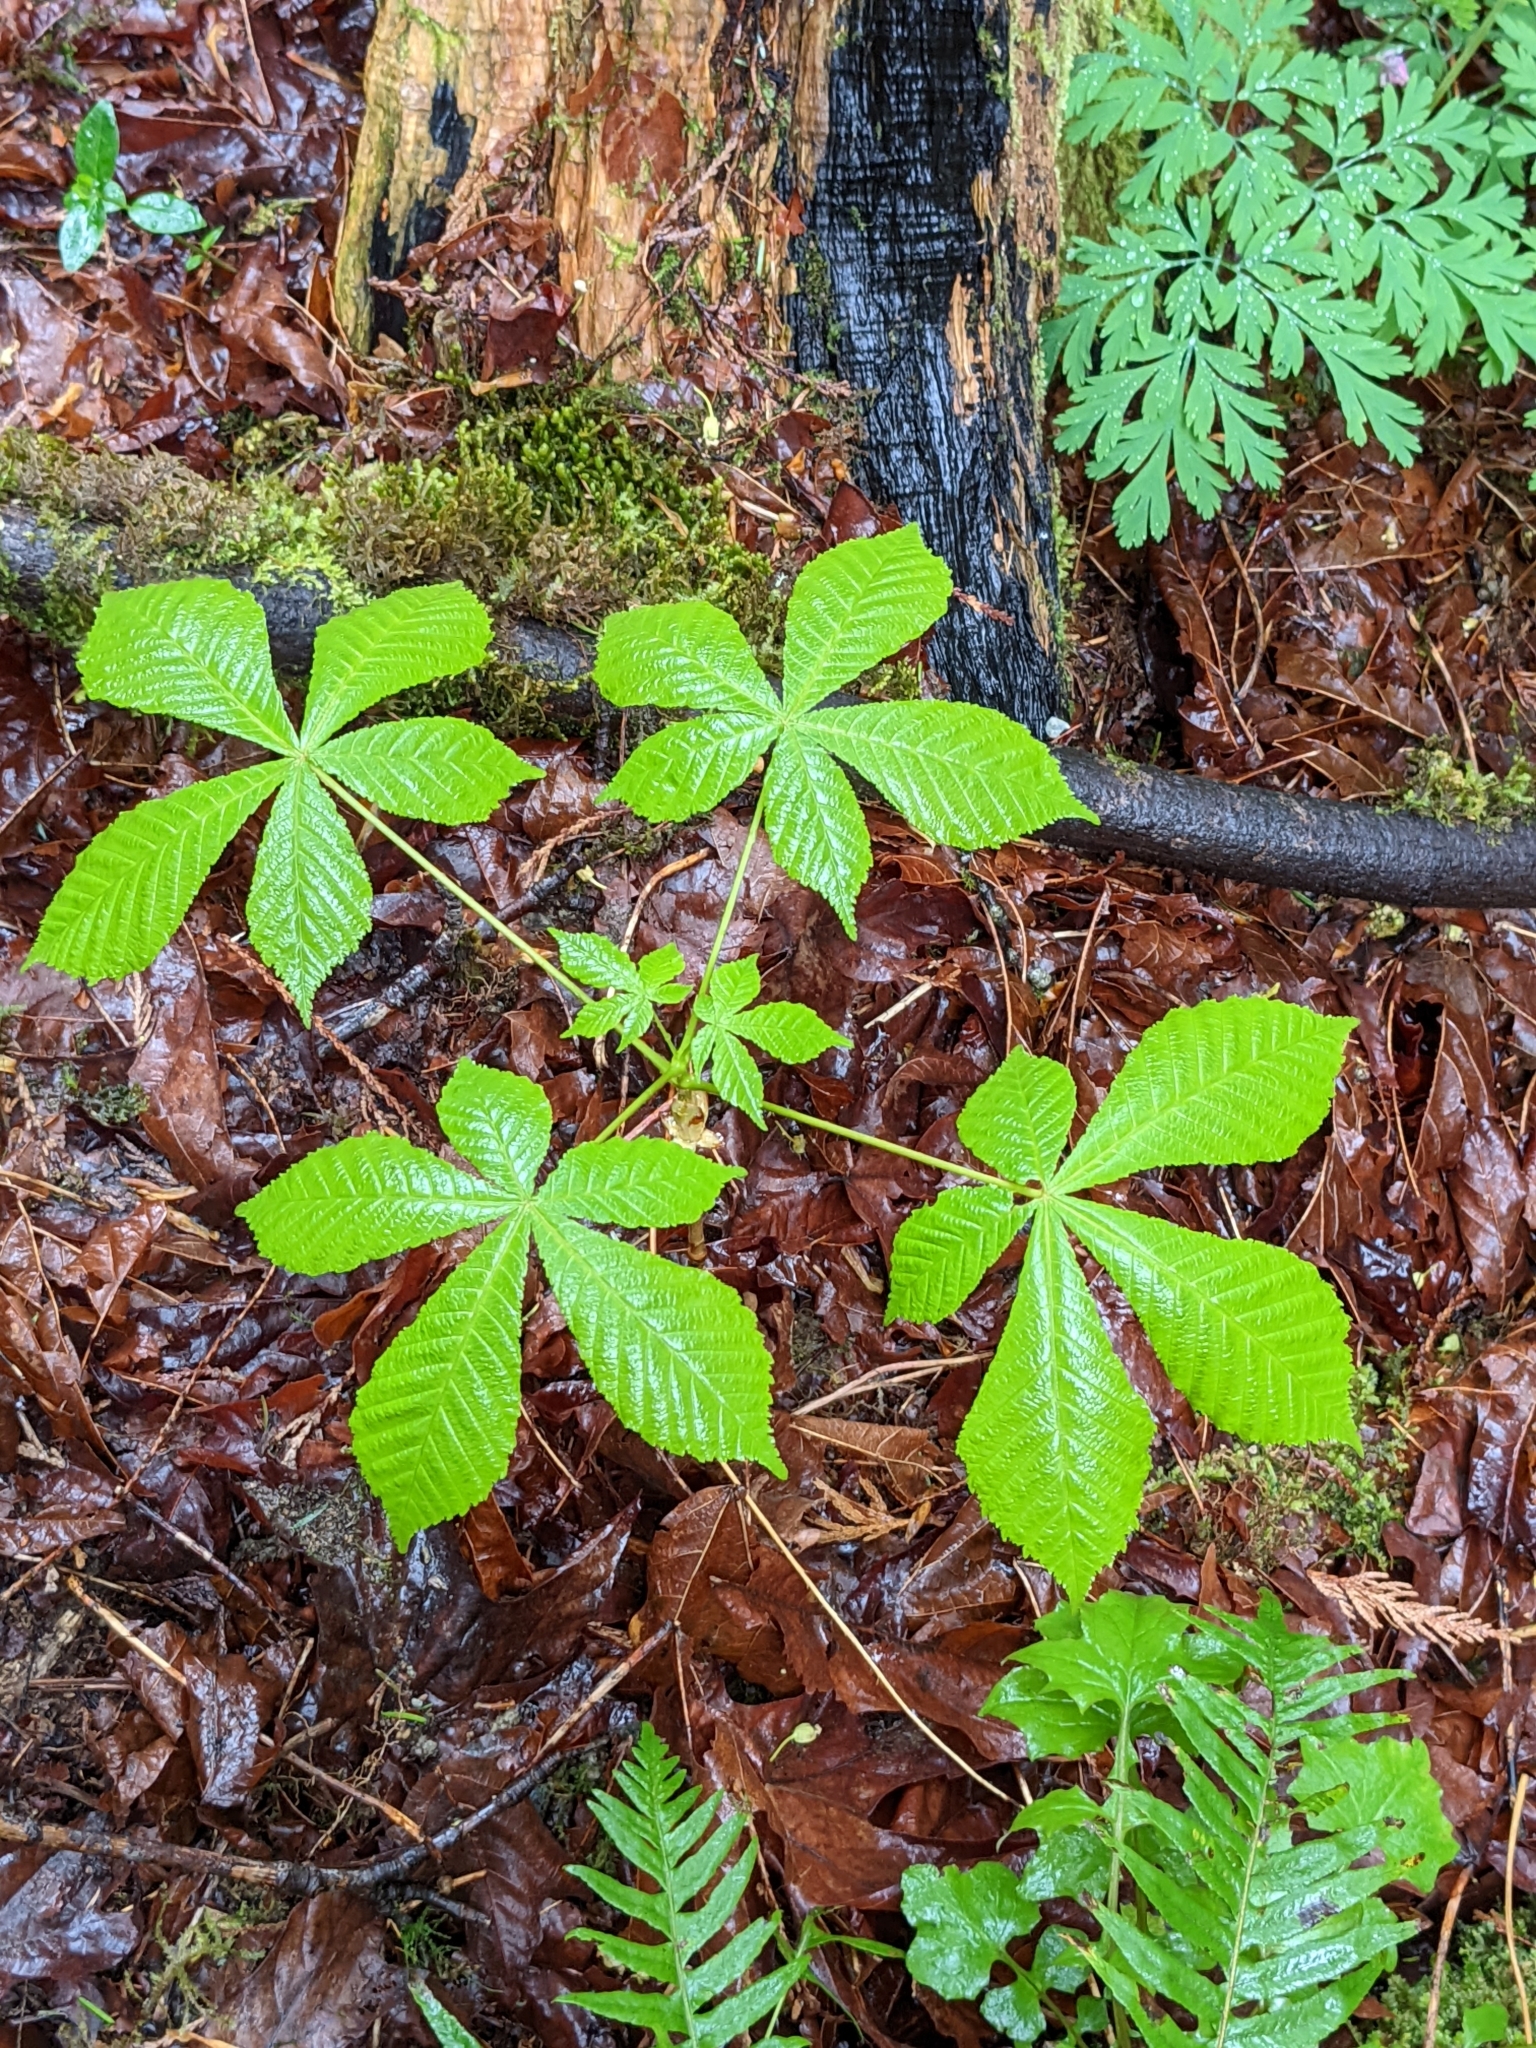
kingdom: Plantae
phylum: Tracheophyta
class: Magnoliopsida
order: Sapindales
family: Sapindaceae
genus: Aesculus
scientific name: Aesculus hippocastanum
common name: Horse-chestnut
